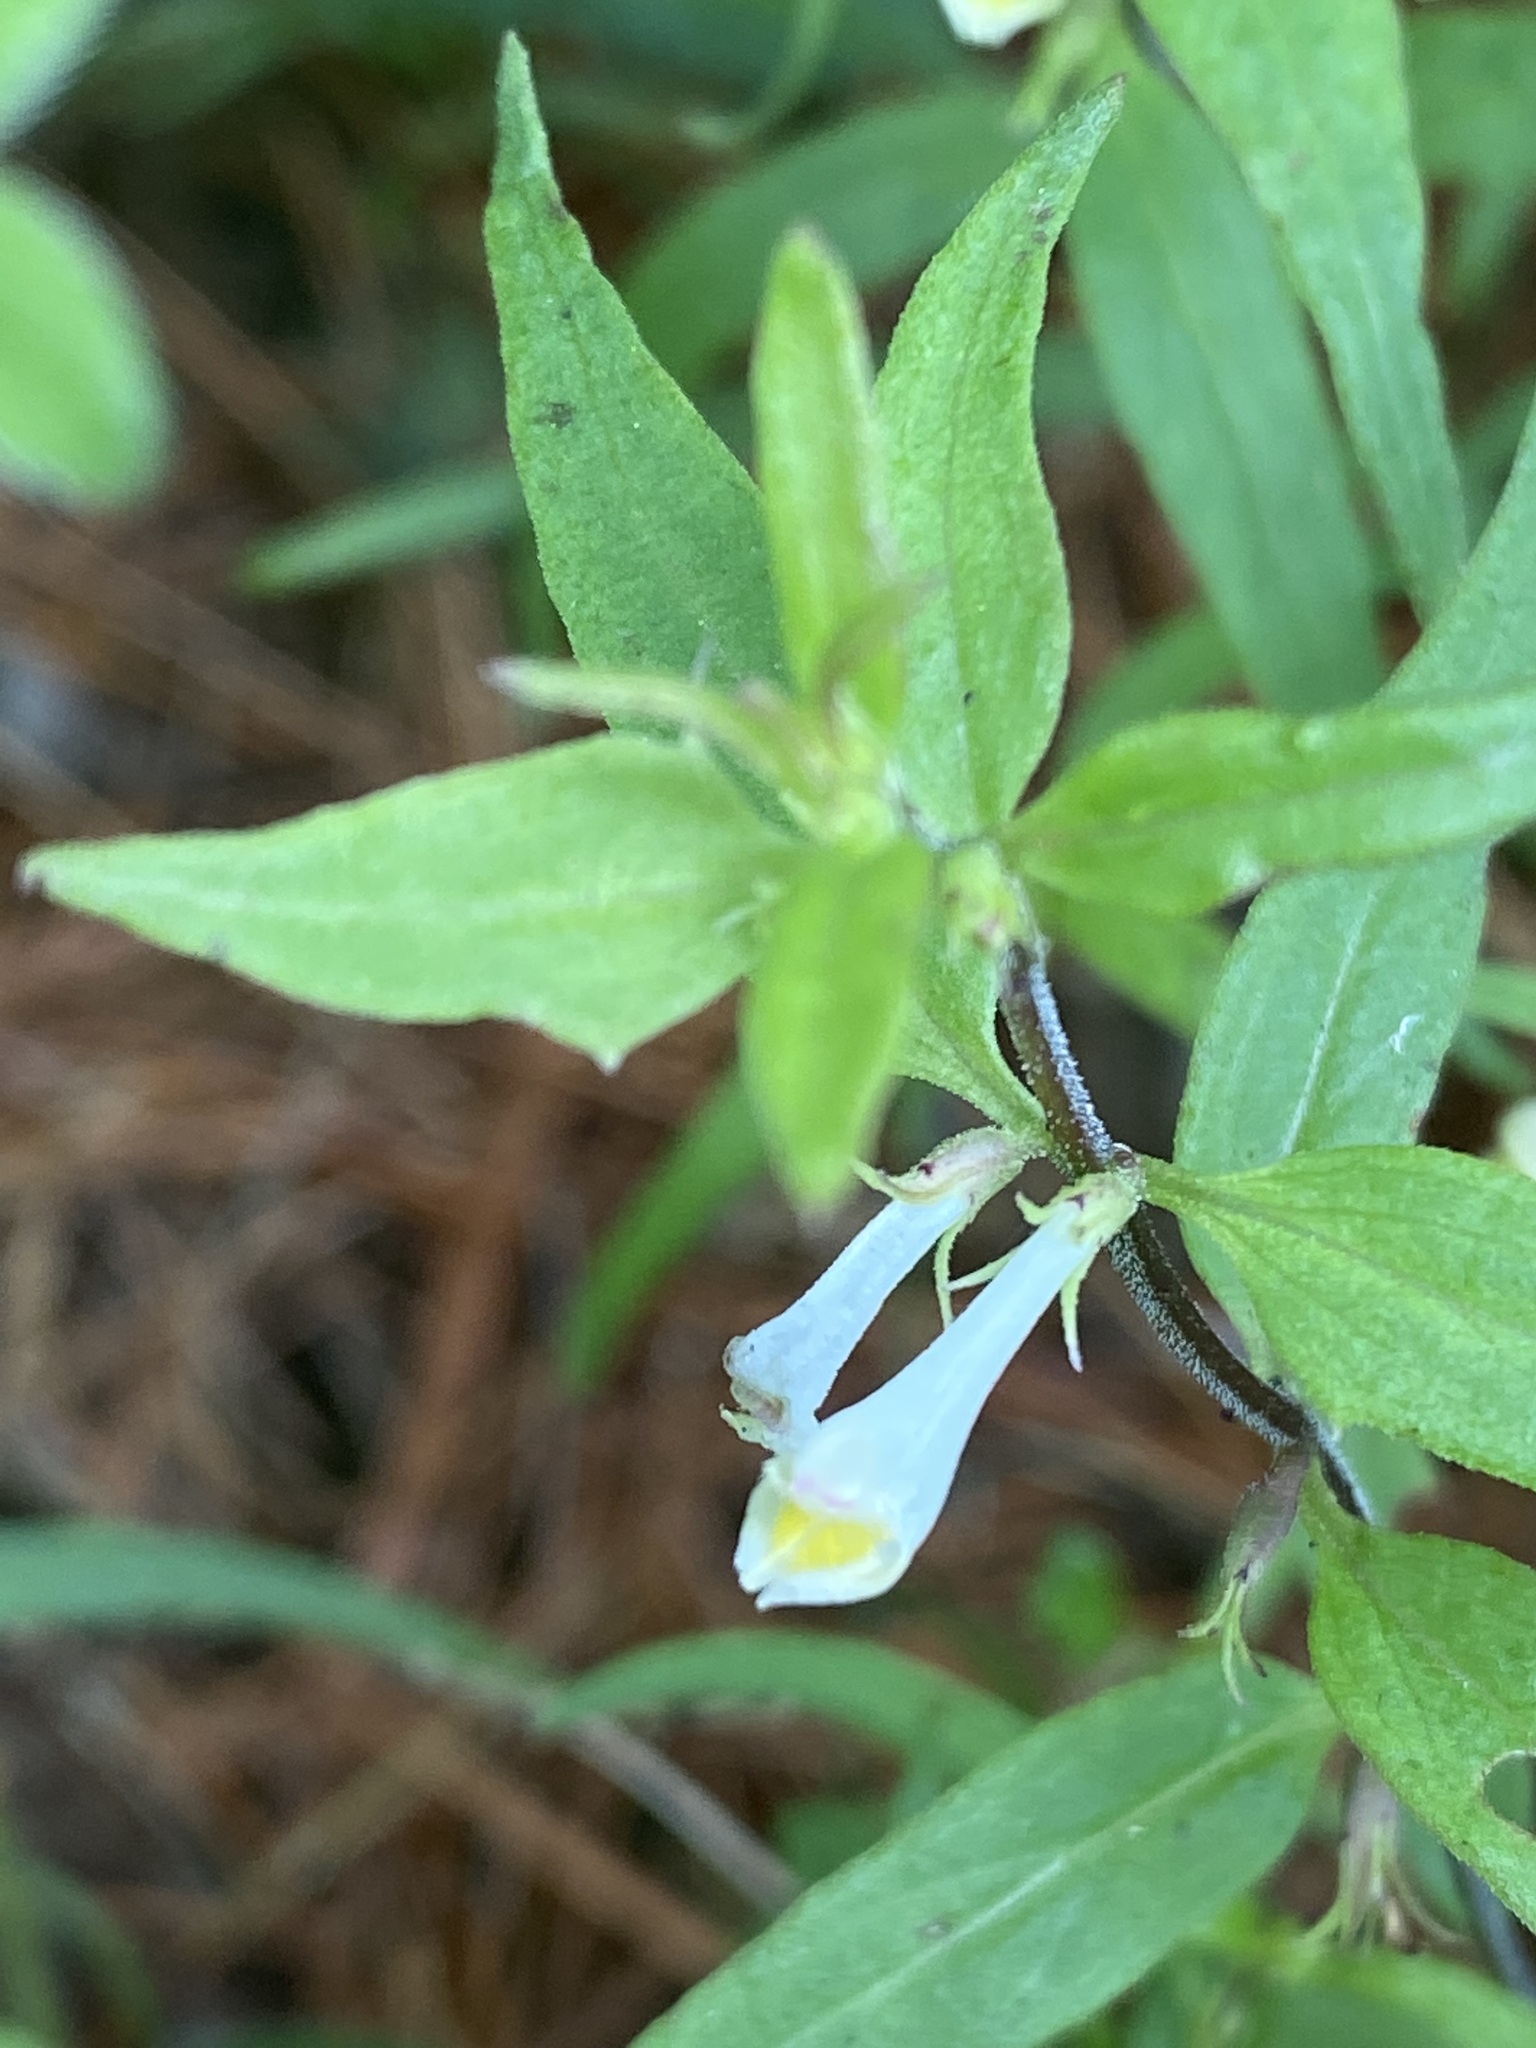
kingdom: Plantae
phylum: Tracheophyta
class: Magnoliopsida
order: Lamiales
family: Orobanchaceae
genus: Melampyrum
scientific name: Melampyrum lineare
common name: American cow-wheat
